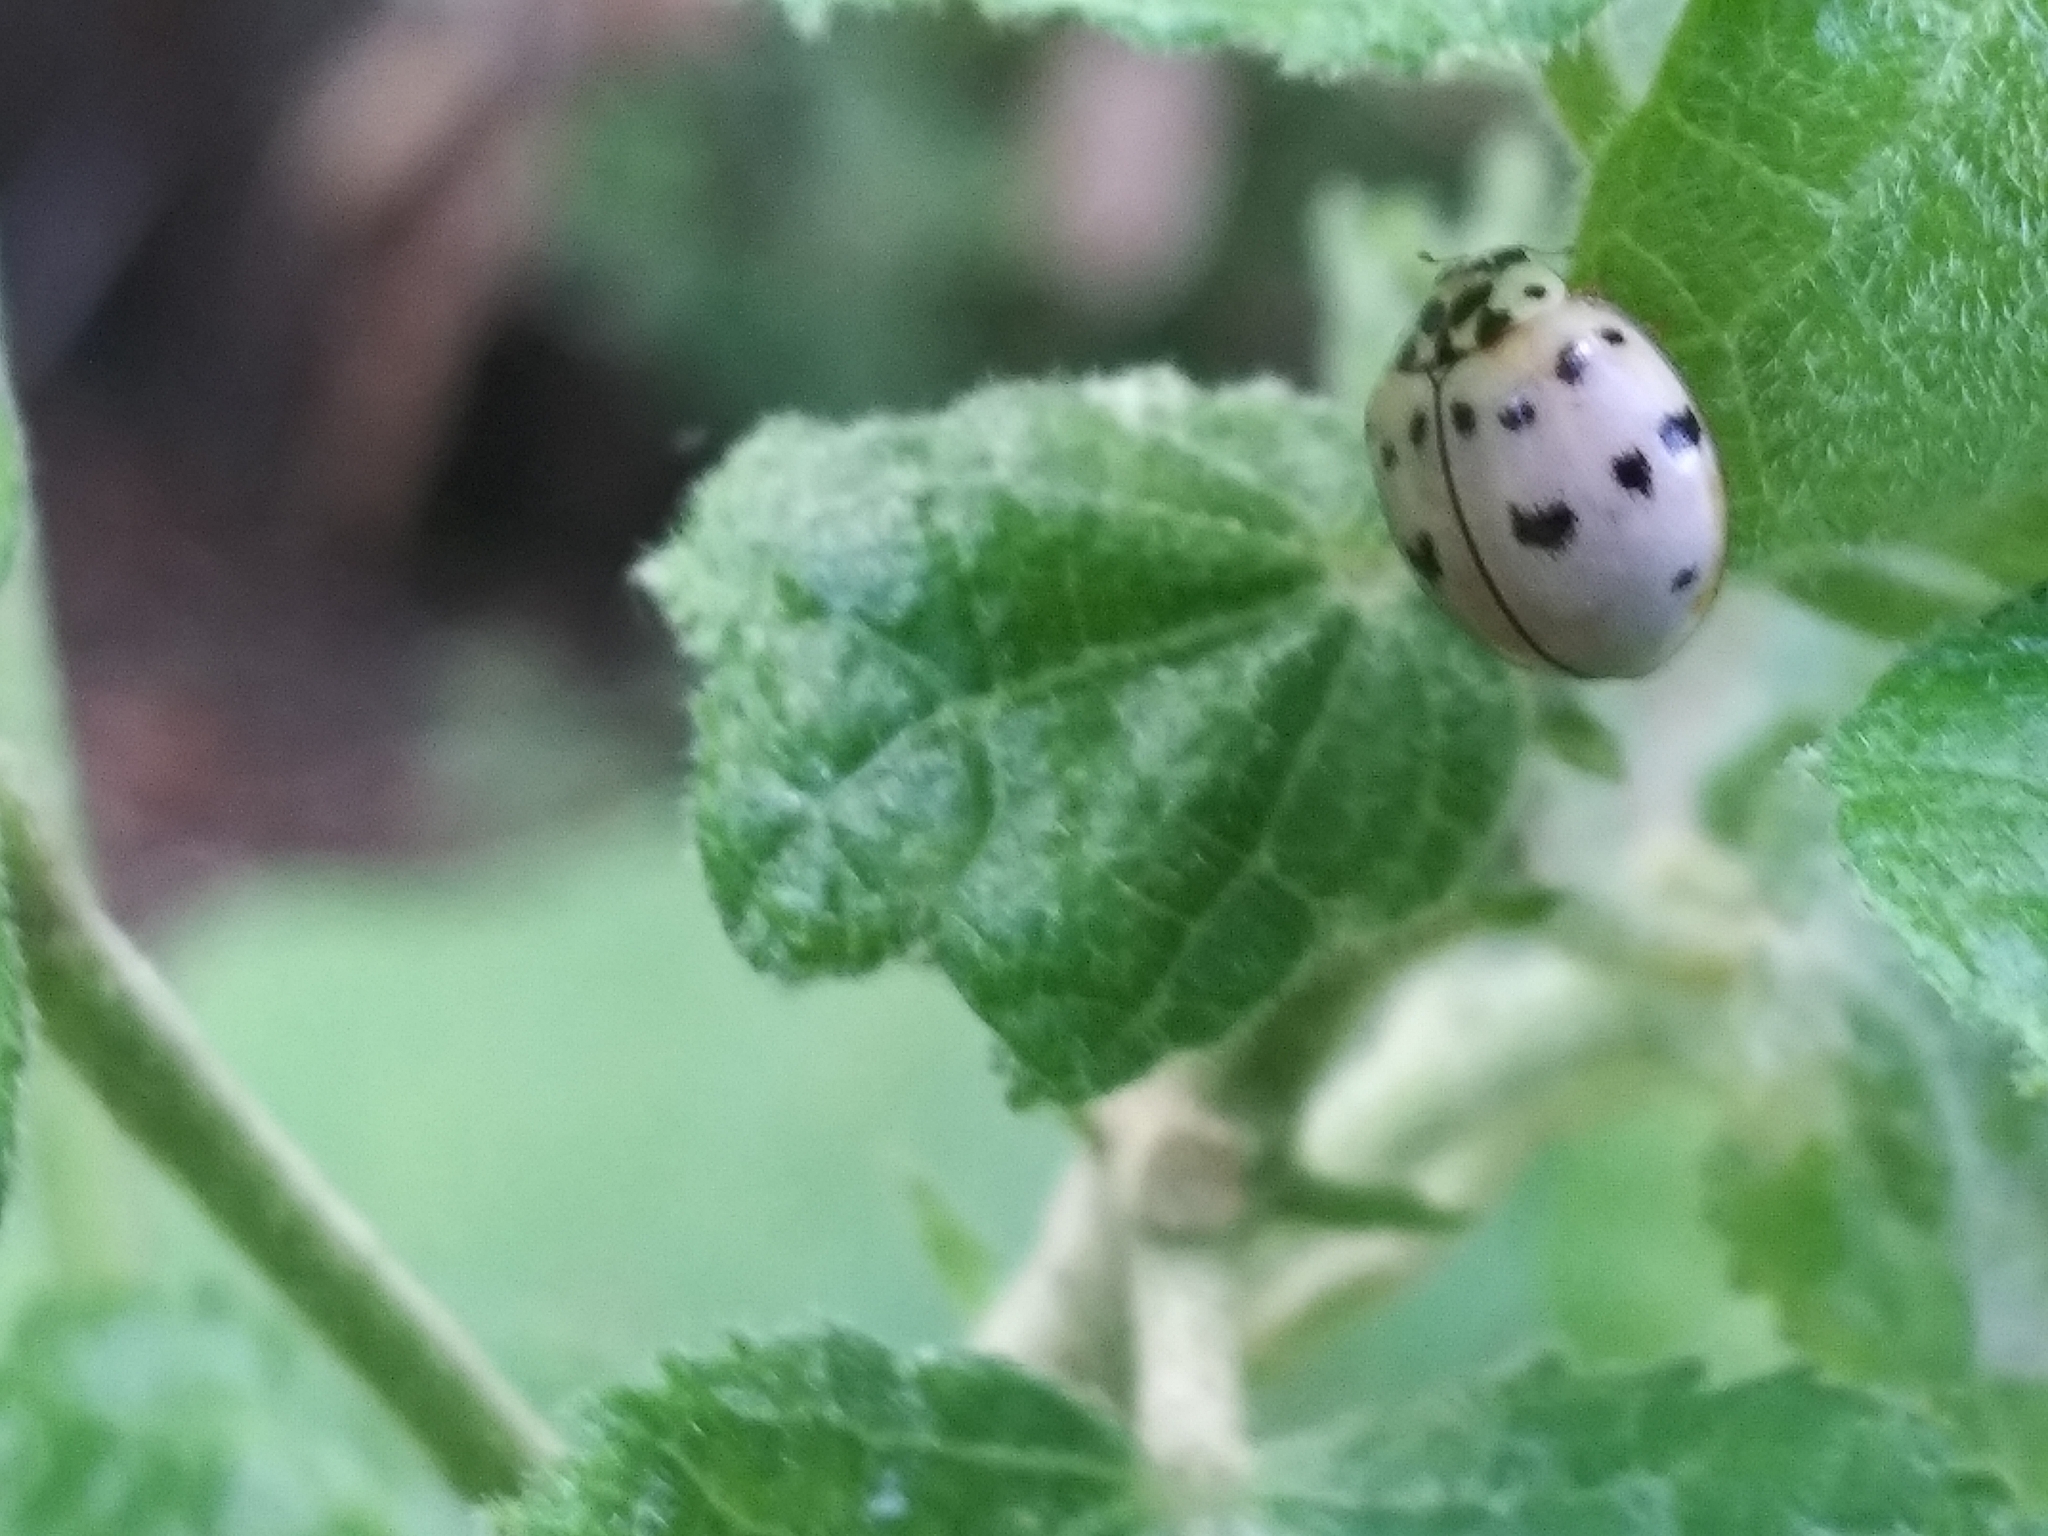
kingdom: Animalia
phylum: Arthropoda
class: Insecta
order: Coleoptera
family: Coccinellidae
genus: Olla
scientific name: Olla v-nigrum
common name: Ashy gray lady beetle
